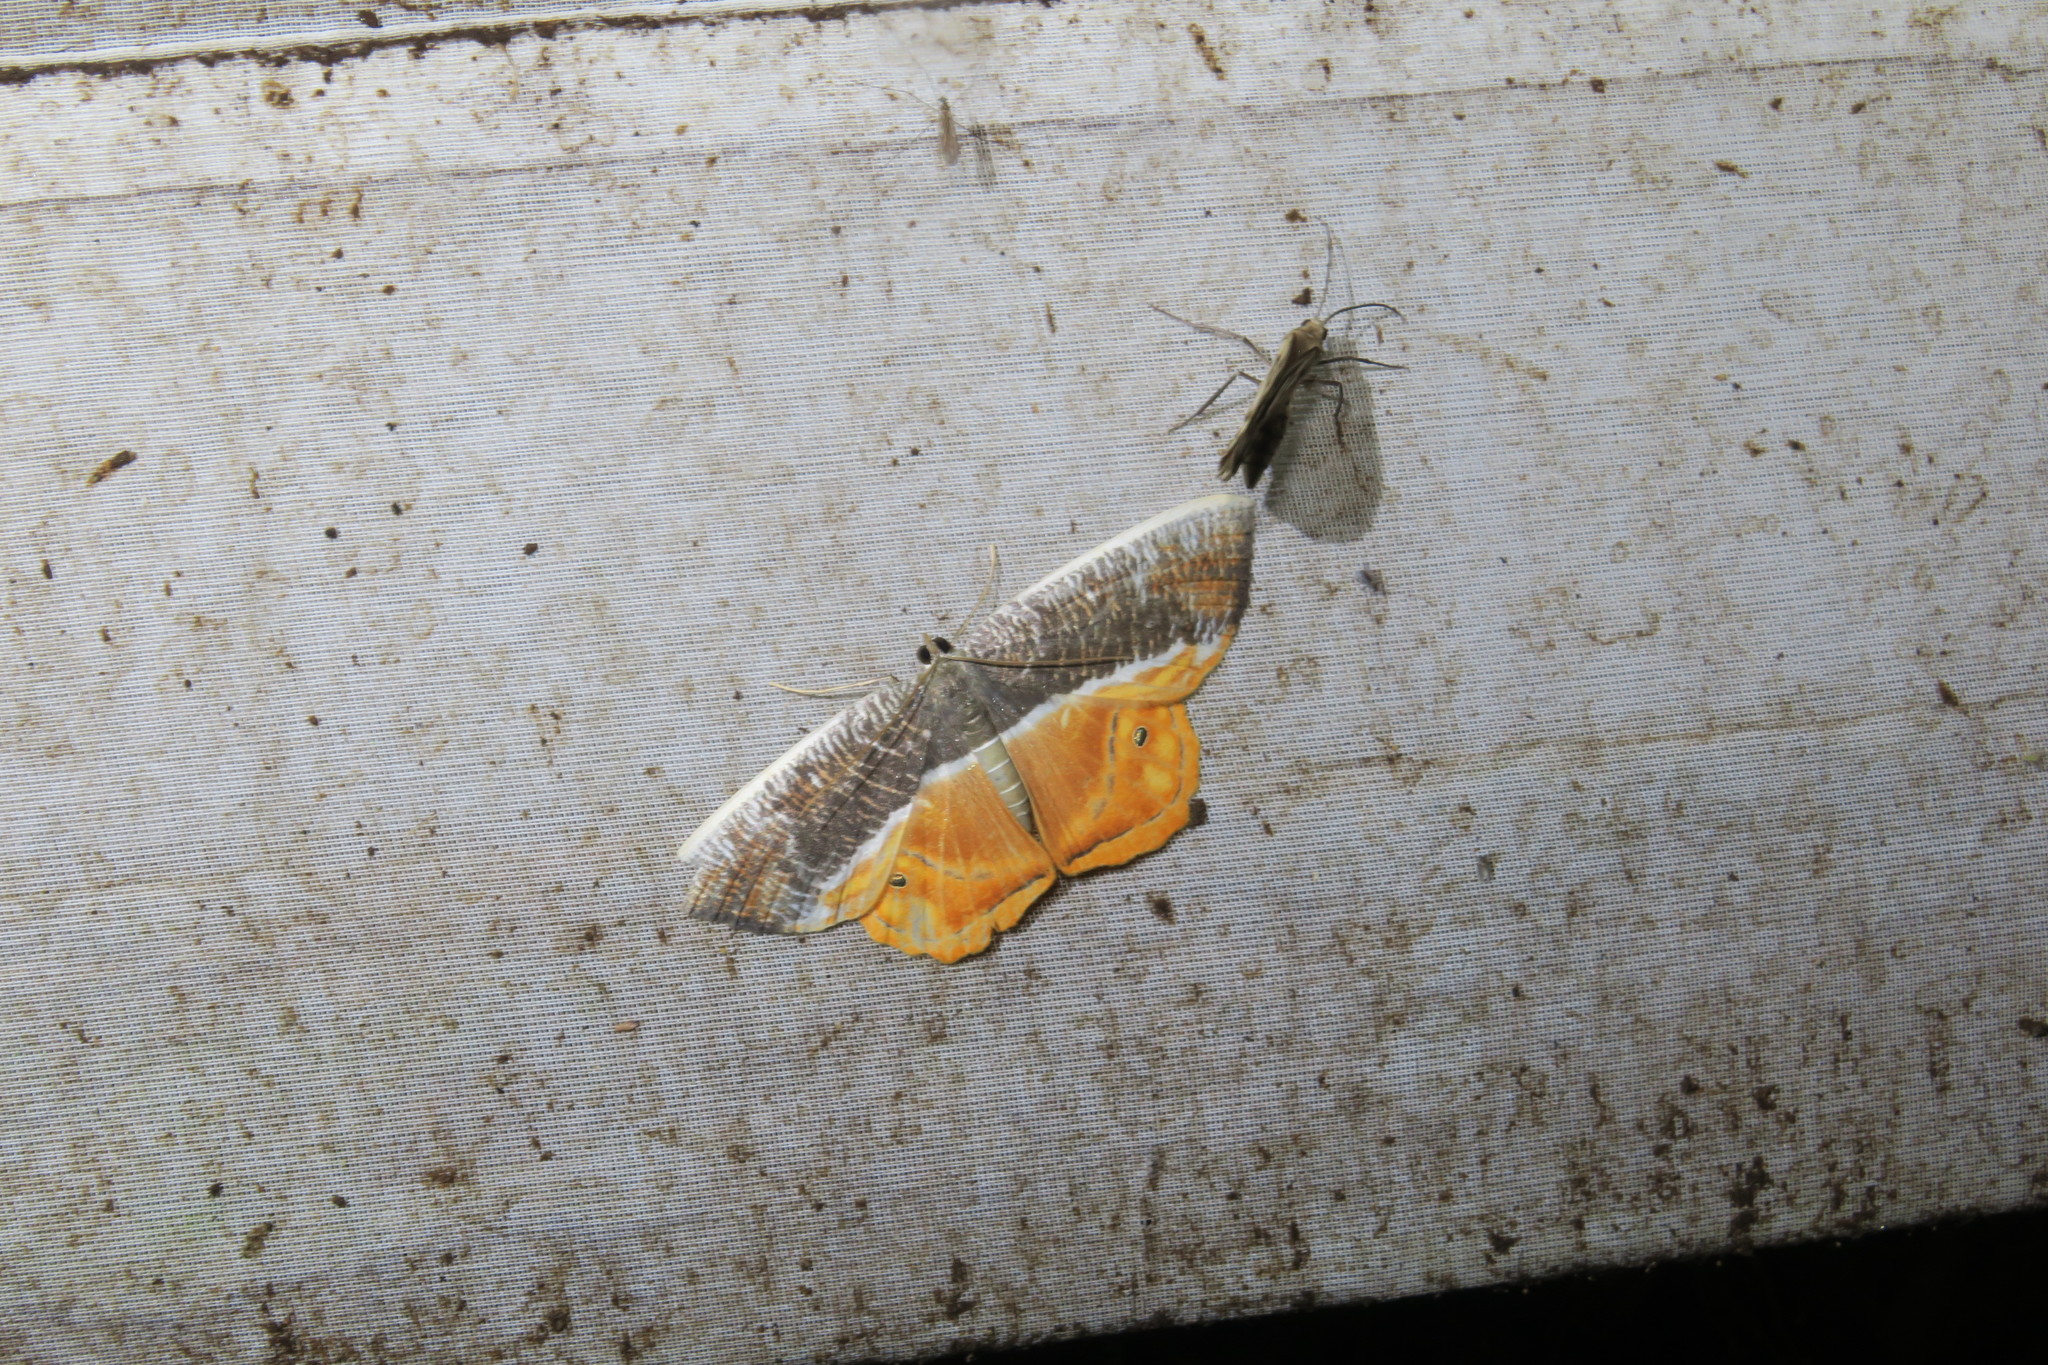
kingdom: Animalia
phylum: Arthropoda
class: Insecta
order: Lepidoptera
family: Geometridae
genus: Opisthoxia
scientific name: Opisthoxia branickiaria
